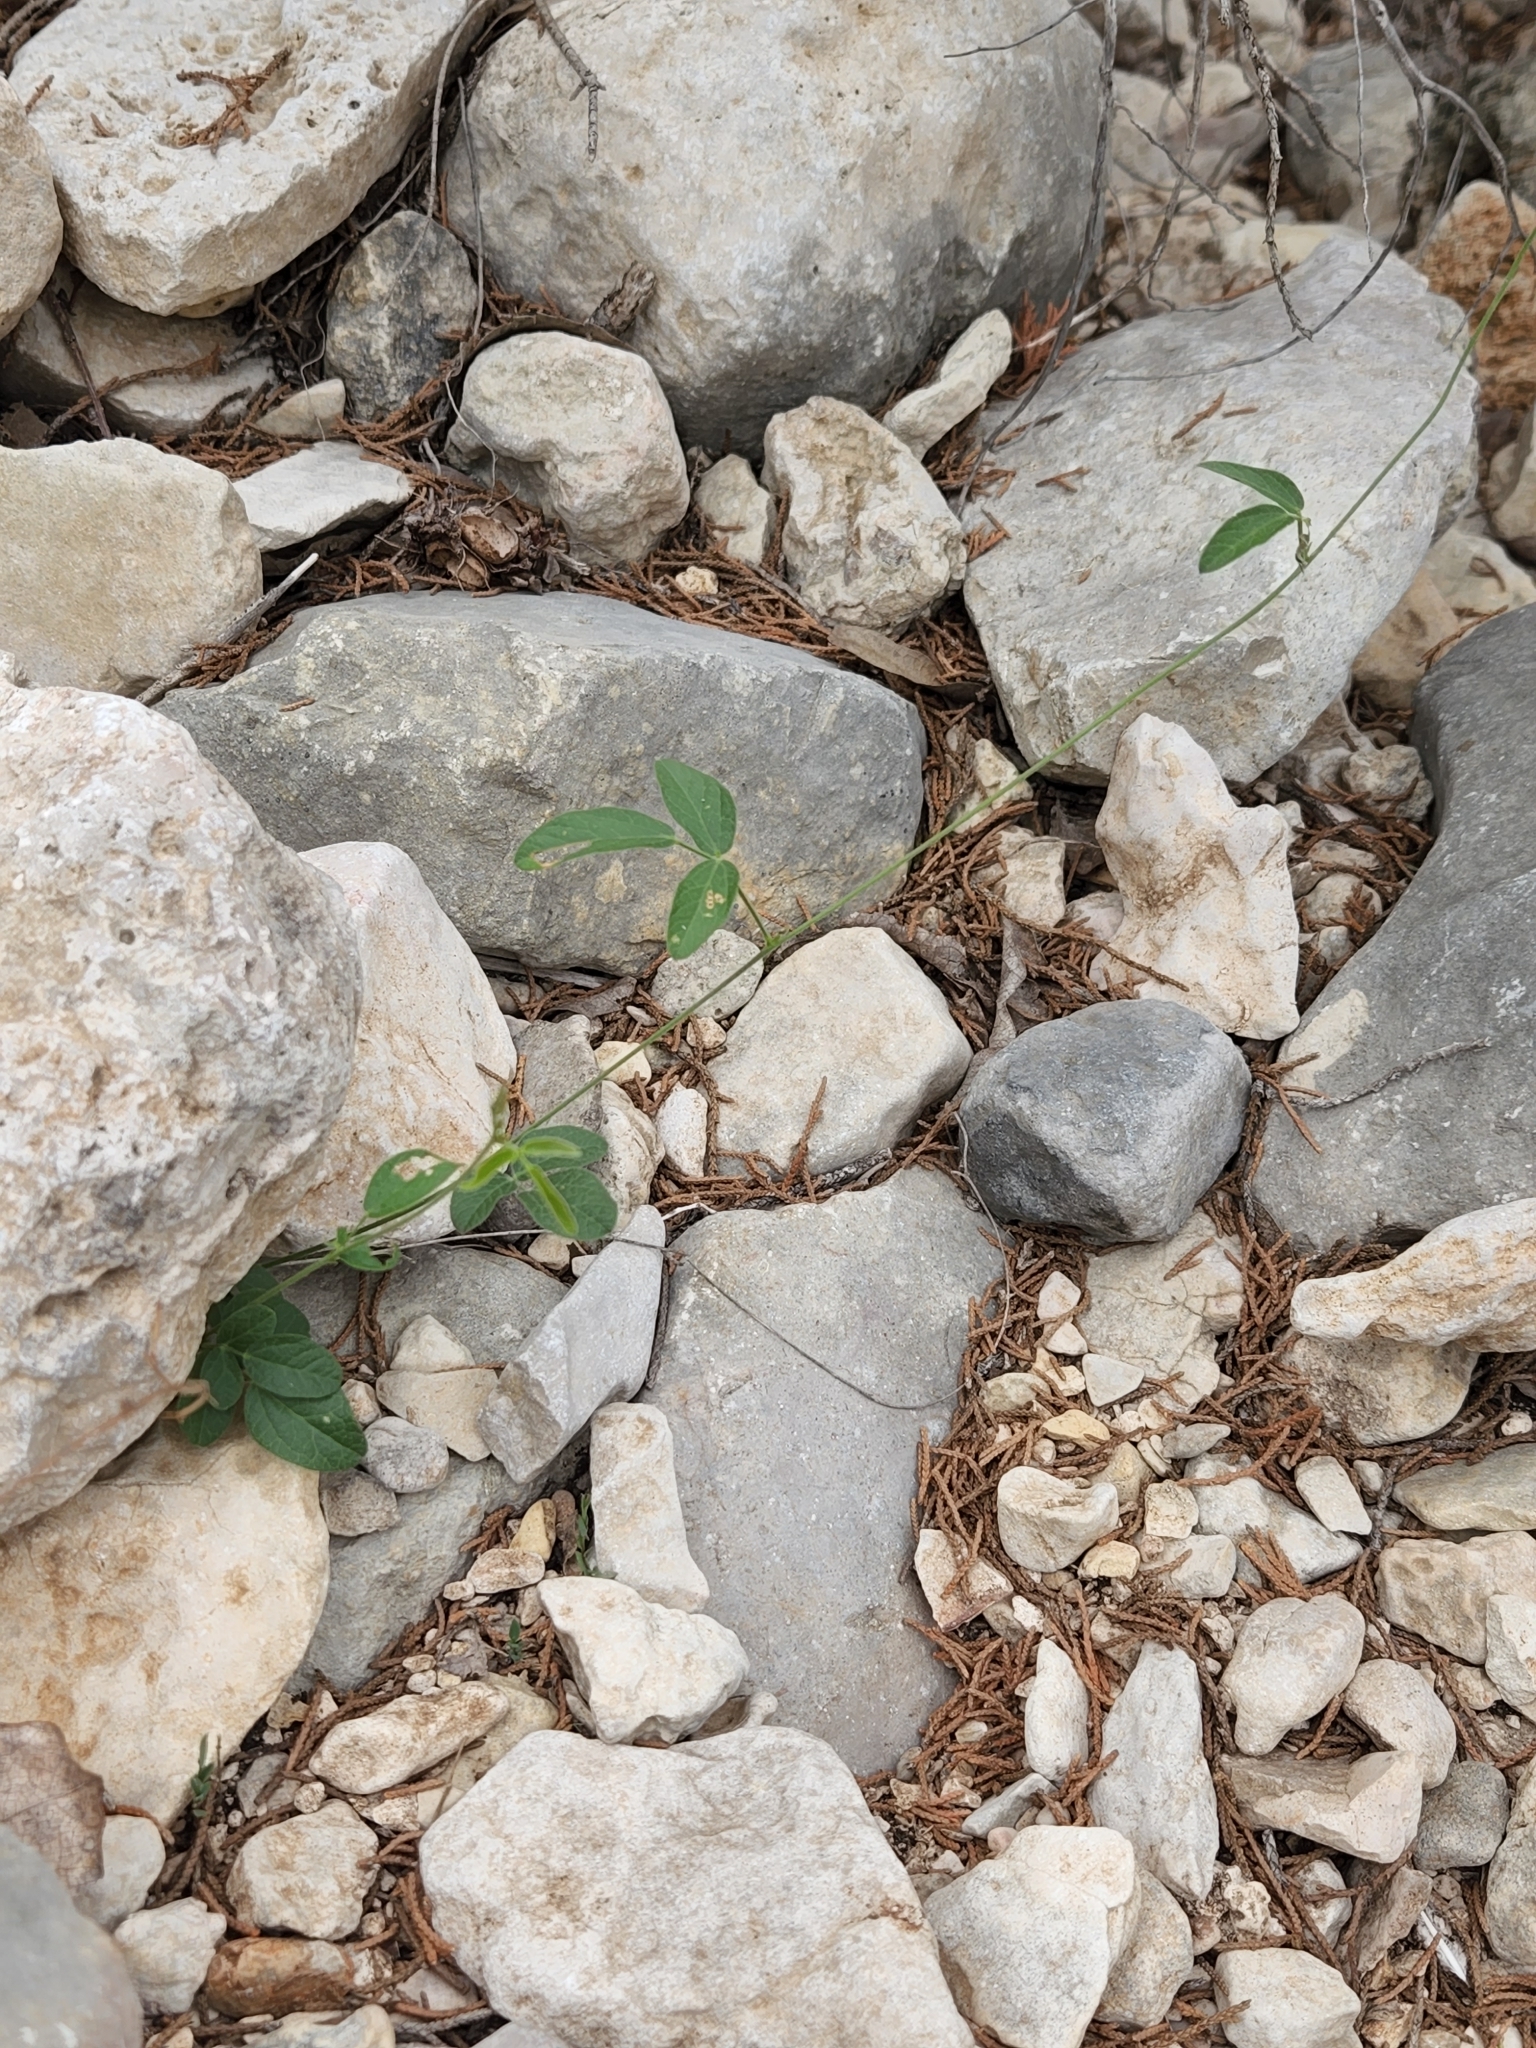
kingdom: Plantae
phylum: Tracheophyta
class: Magnoliopsida
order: Fabales
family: Fabaceae
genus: Rhynchosia
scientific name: Rhynchosia senna
